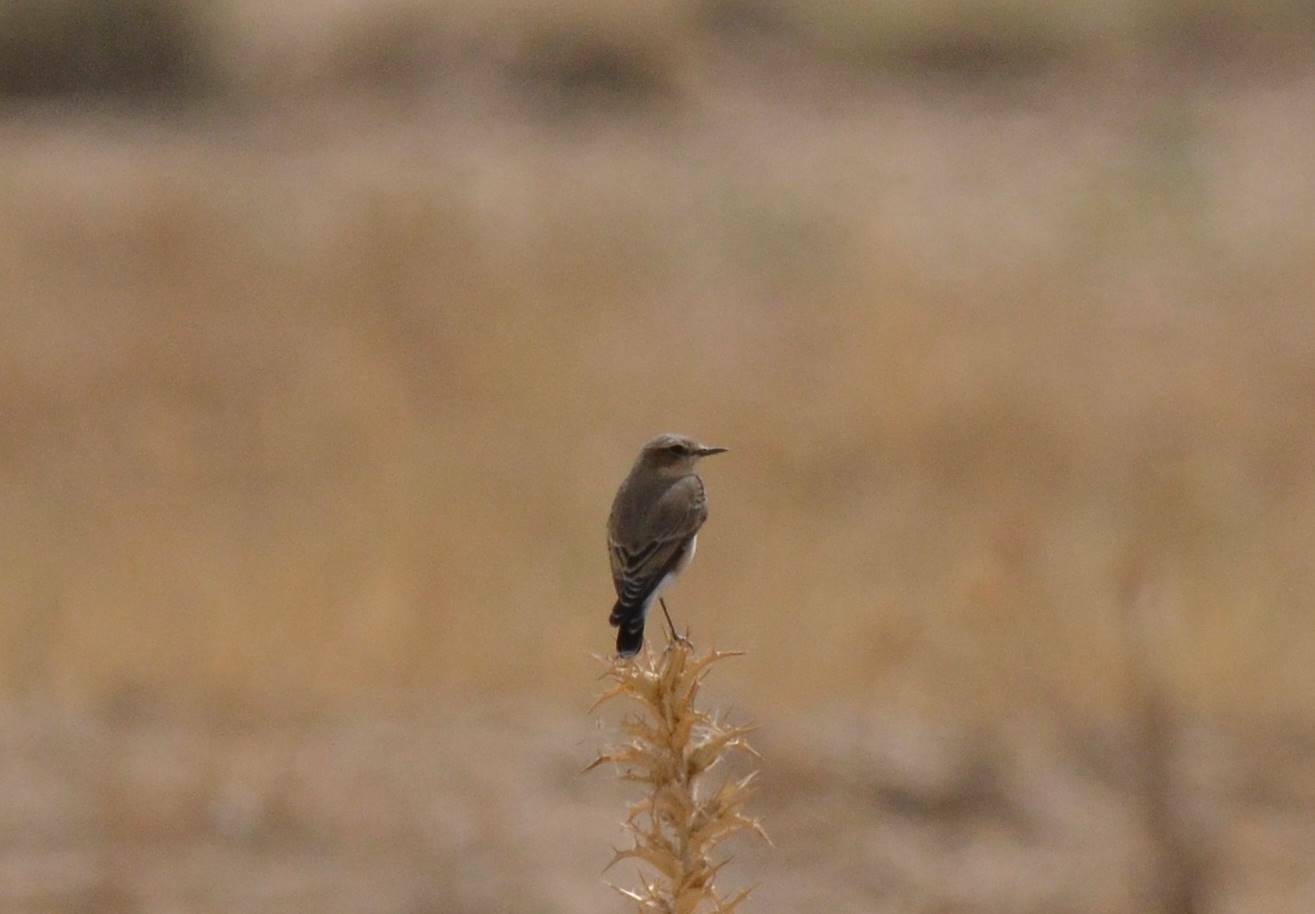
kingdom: Animalia
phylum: Chordata
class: Aves
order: Passeriformes
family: Muscicapidae
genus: Oenanthe
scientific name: Oenanthe oenanthe
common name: Northern wheatear
